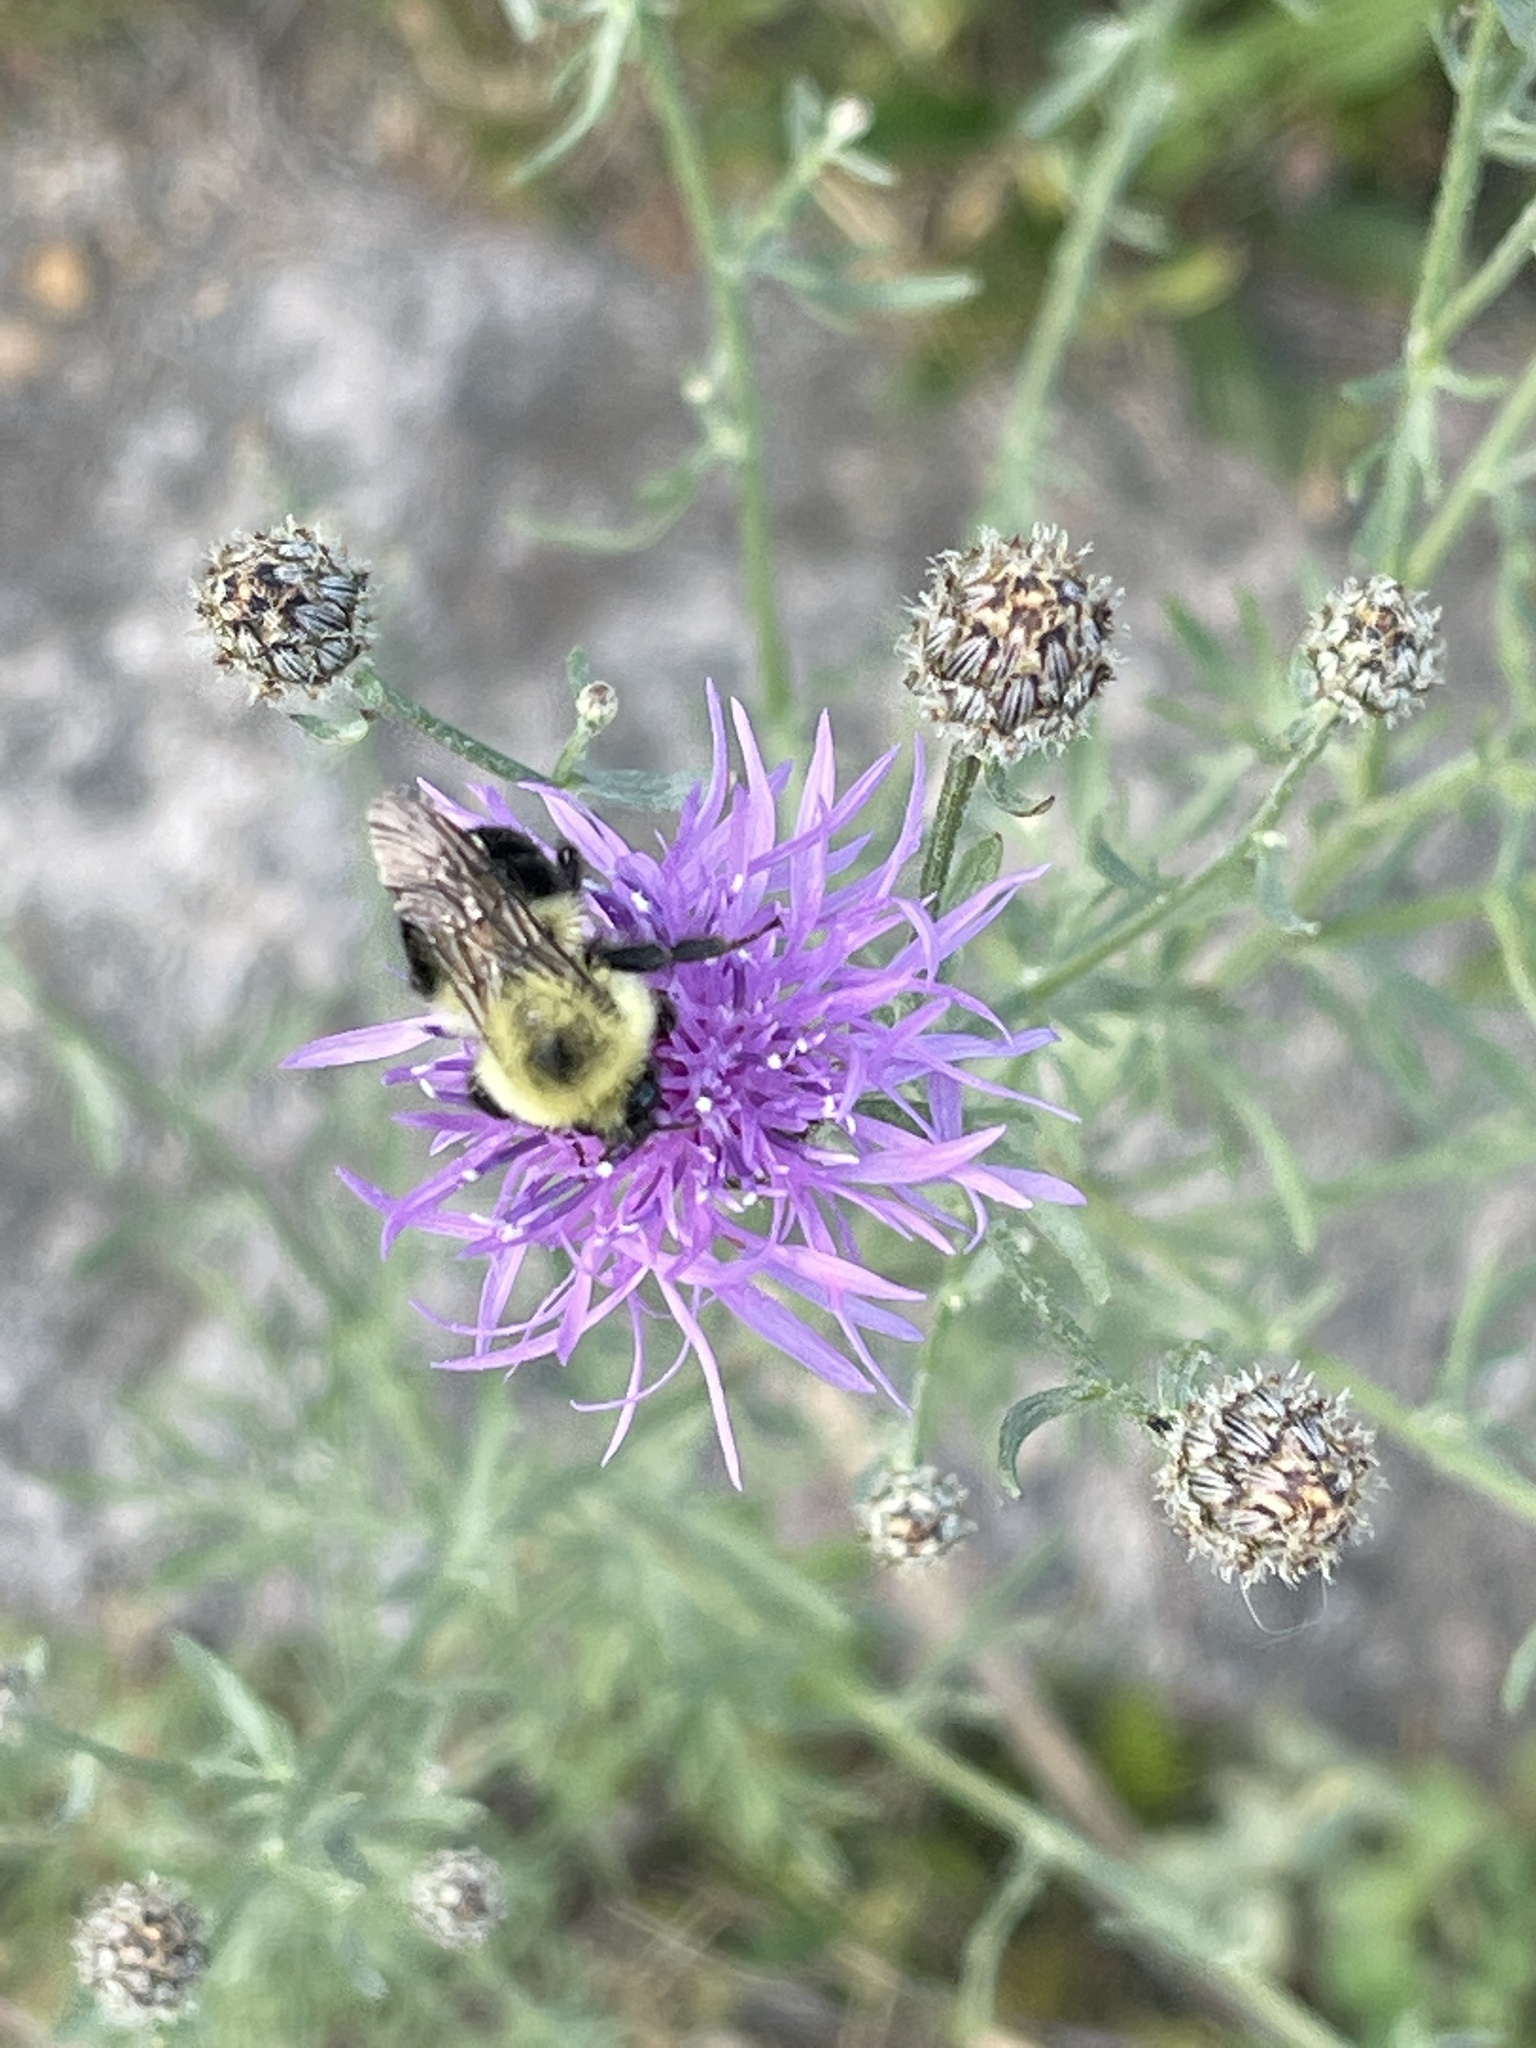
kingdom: Animalia
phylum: Arthropoda
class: Insecta
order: Hymenoptera
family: Apidae
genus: Bombus
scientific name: Bombus bimaculatus
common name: Two-spotted bumble bee
